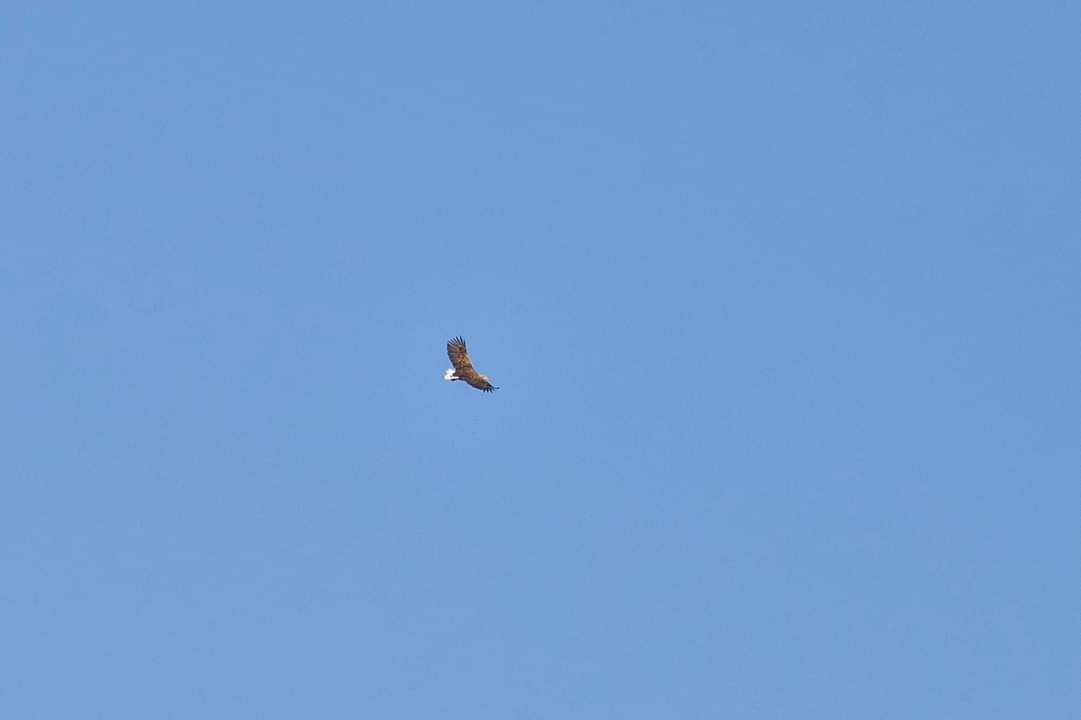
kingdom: Animalia
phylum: Chordata
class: Aves
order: Accipitriformes
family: Accipitridae
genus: Haliaeetus
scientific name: Haliaeetus albicilla
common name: White-tailed eagle
